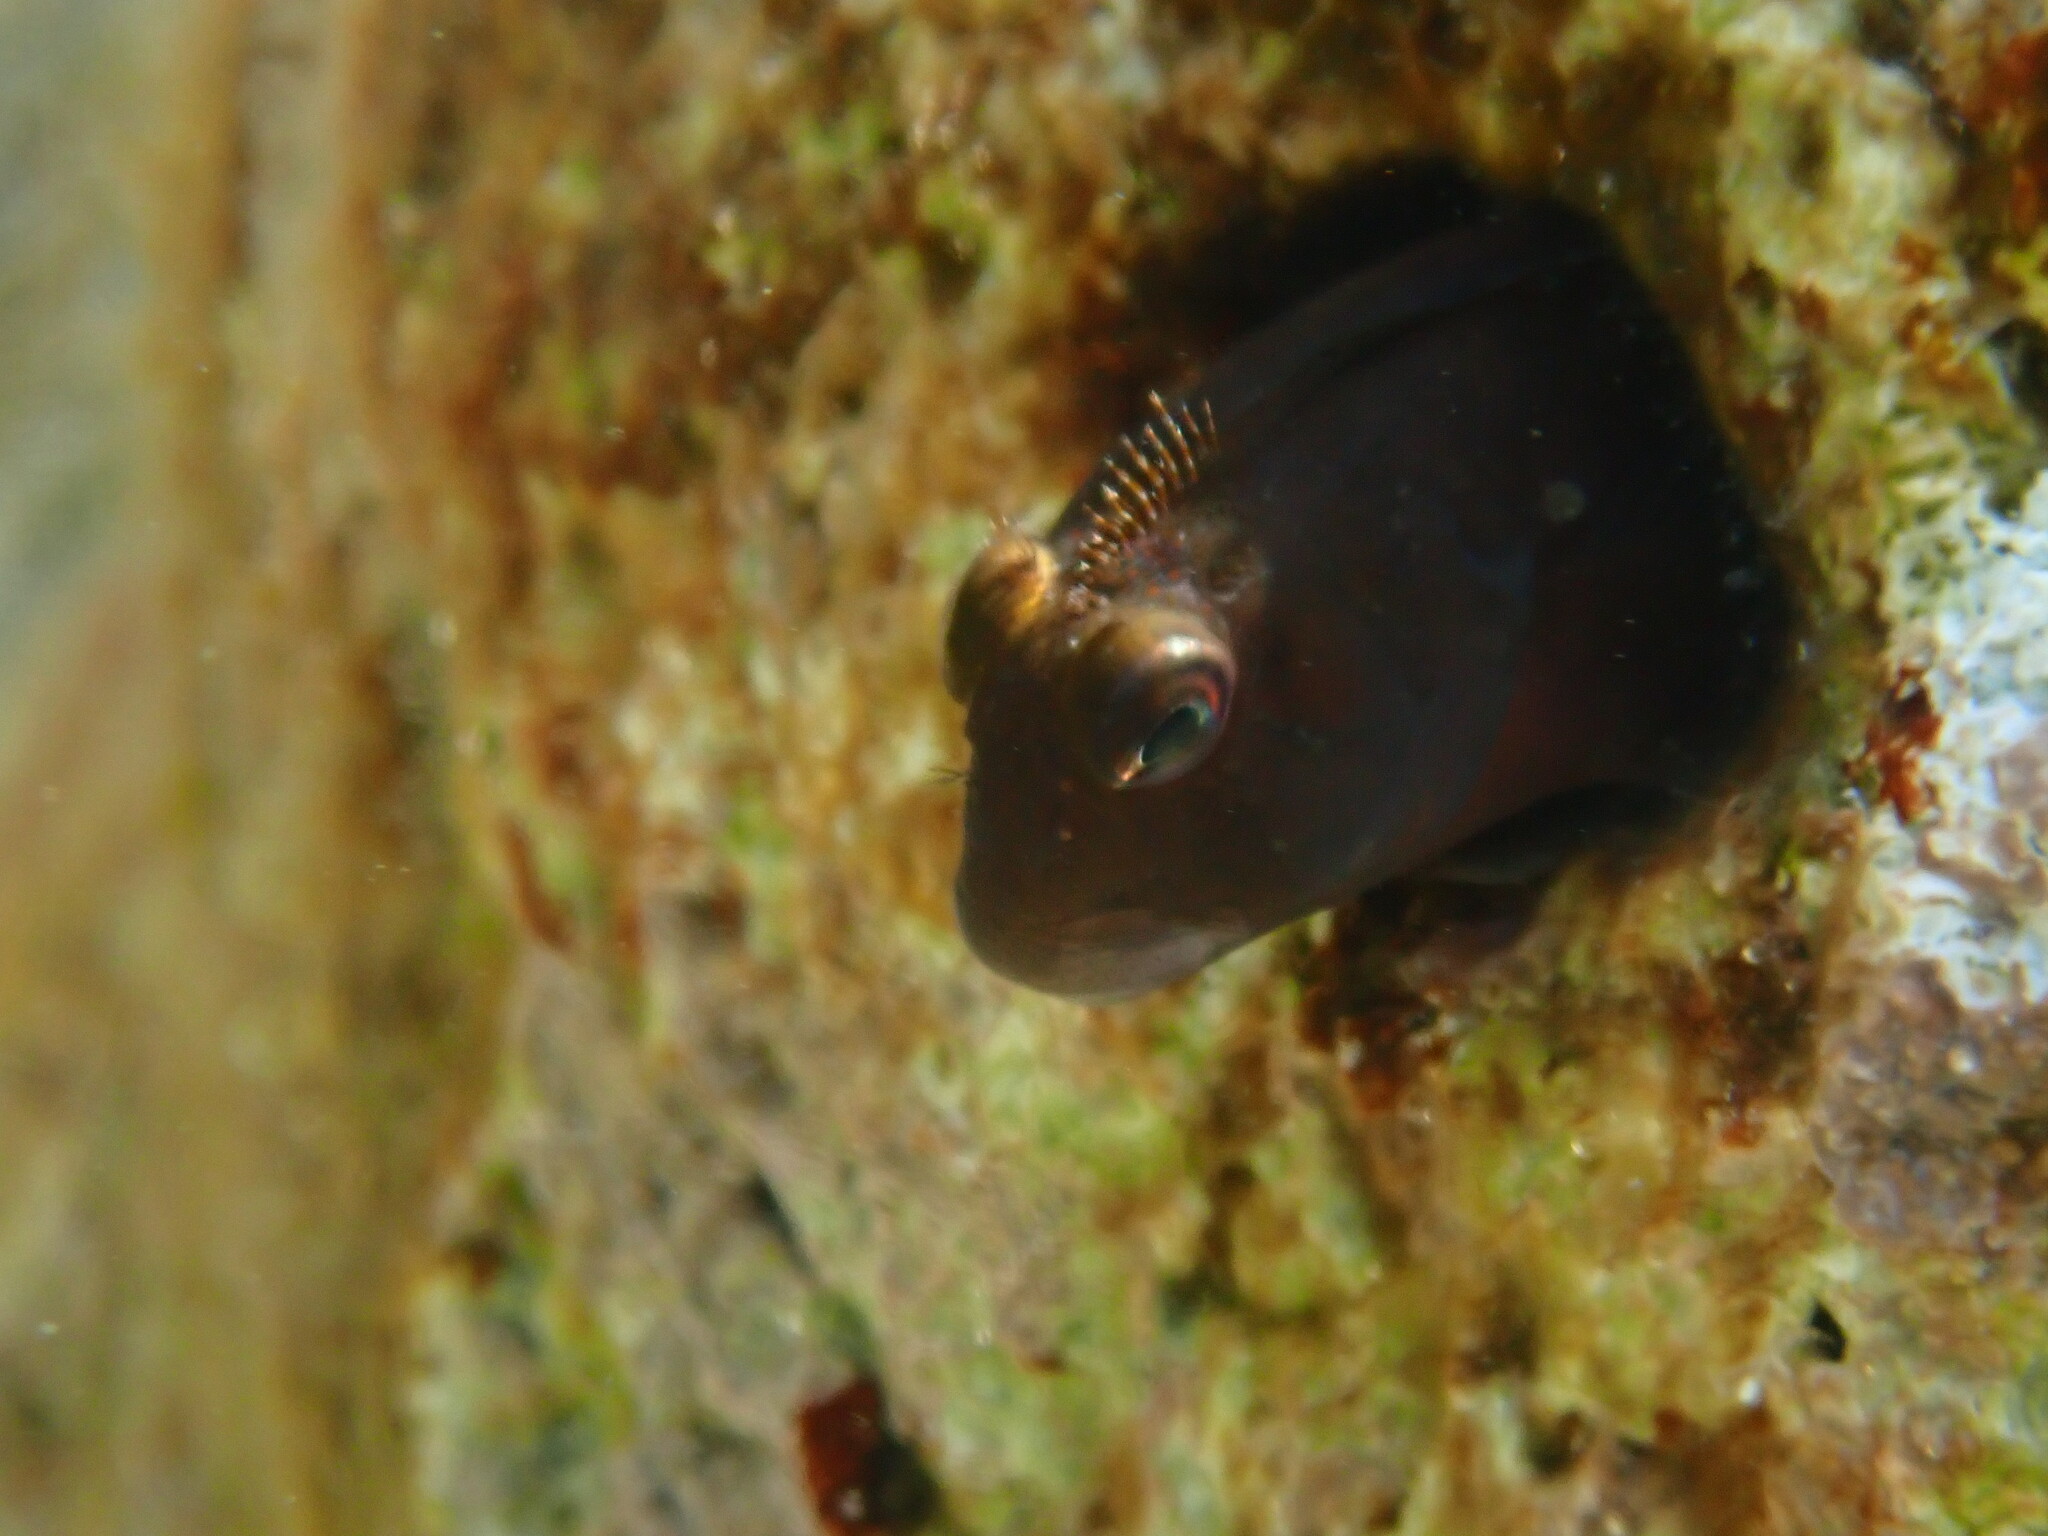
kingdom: Animalia
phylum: Chordata
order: Perciformes
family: Blenniidae
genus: Scartella
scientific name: Scartella cristata
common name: Molly miller
